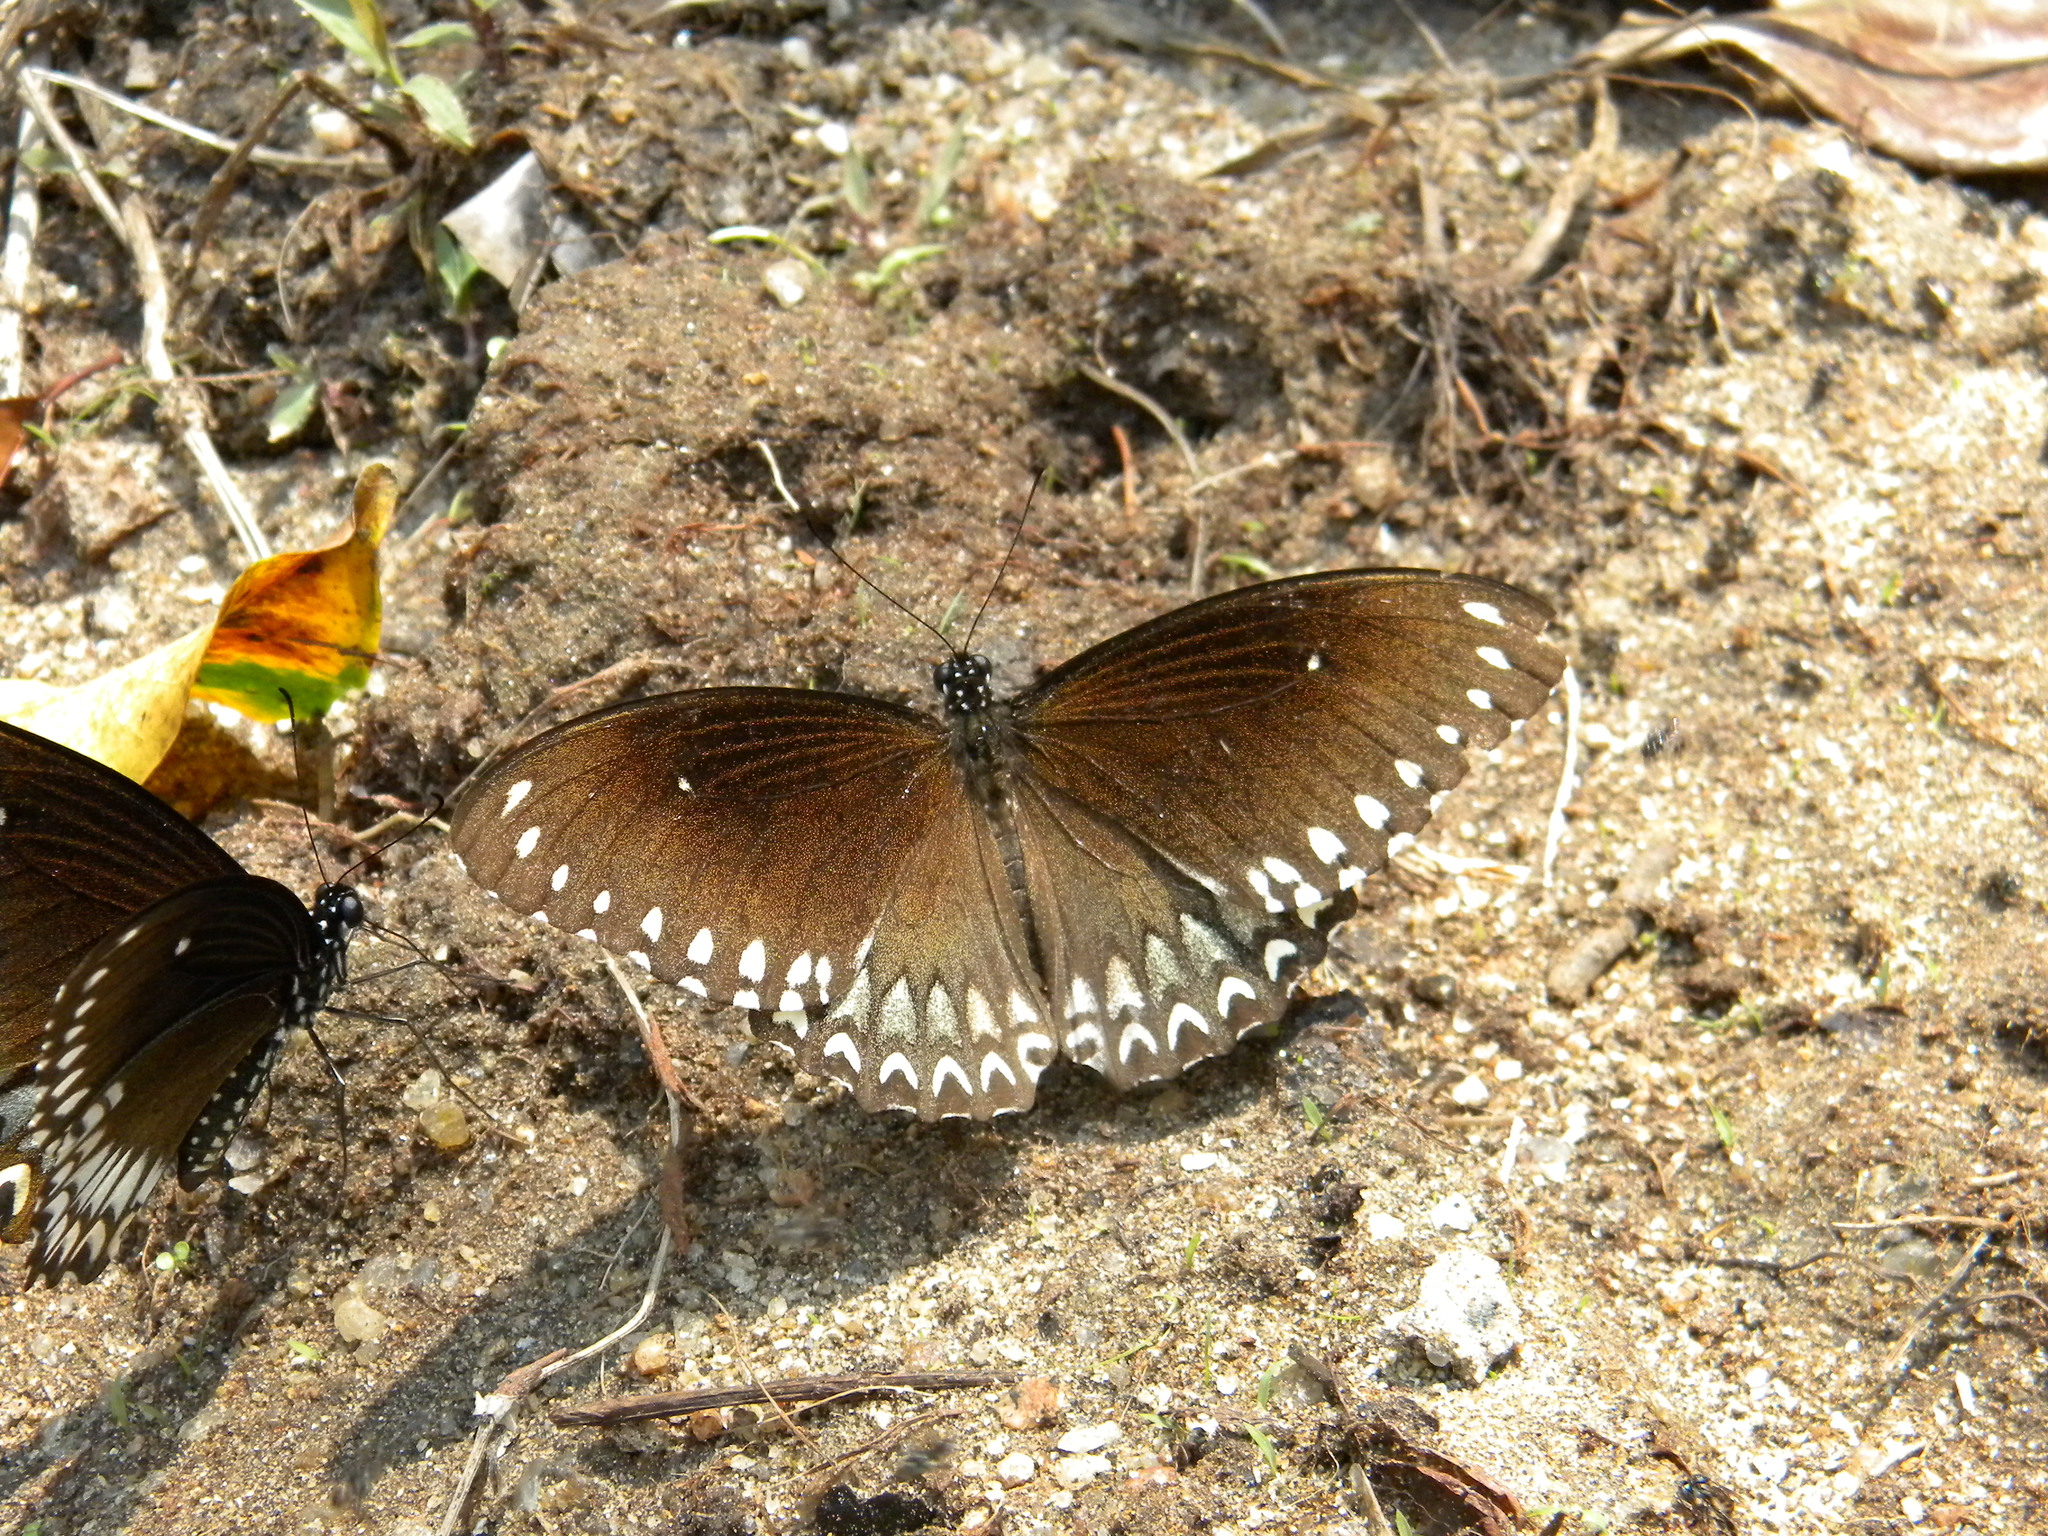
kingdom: Animalia
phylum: Arthropoda
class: Insecta
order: Lepidoptera
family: Papilionidae
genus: Papilio
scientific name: Papilio dravidarum
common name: Malabar raven
